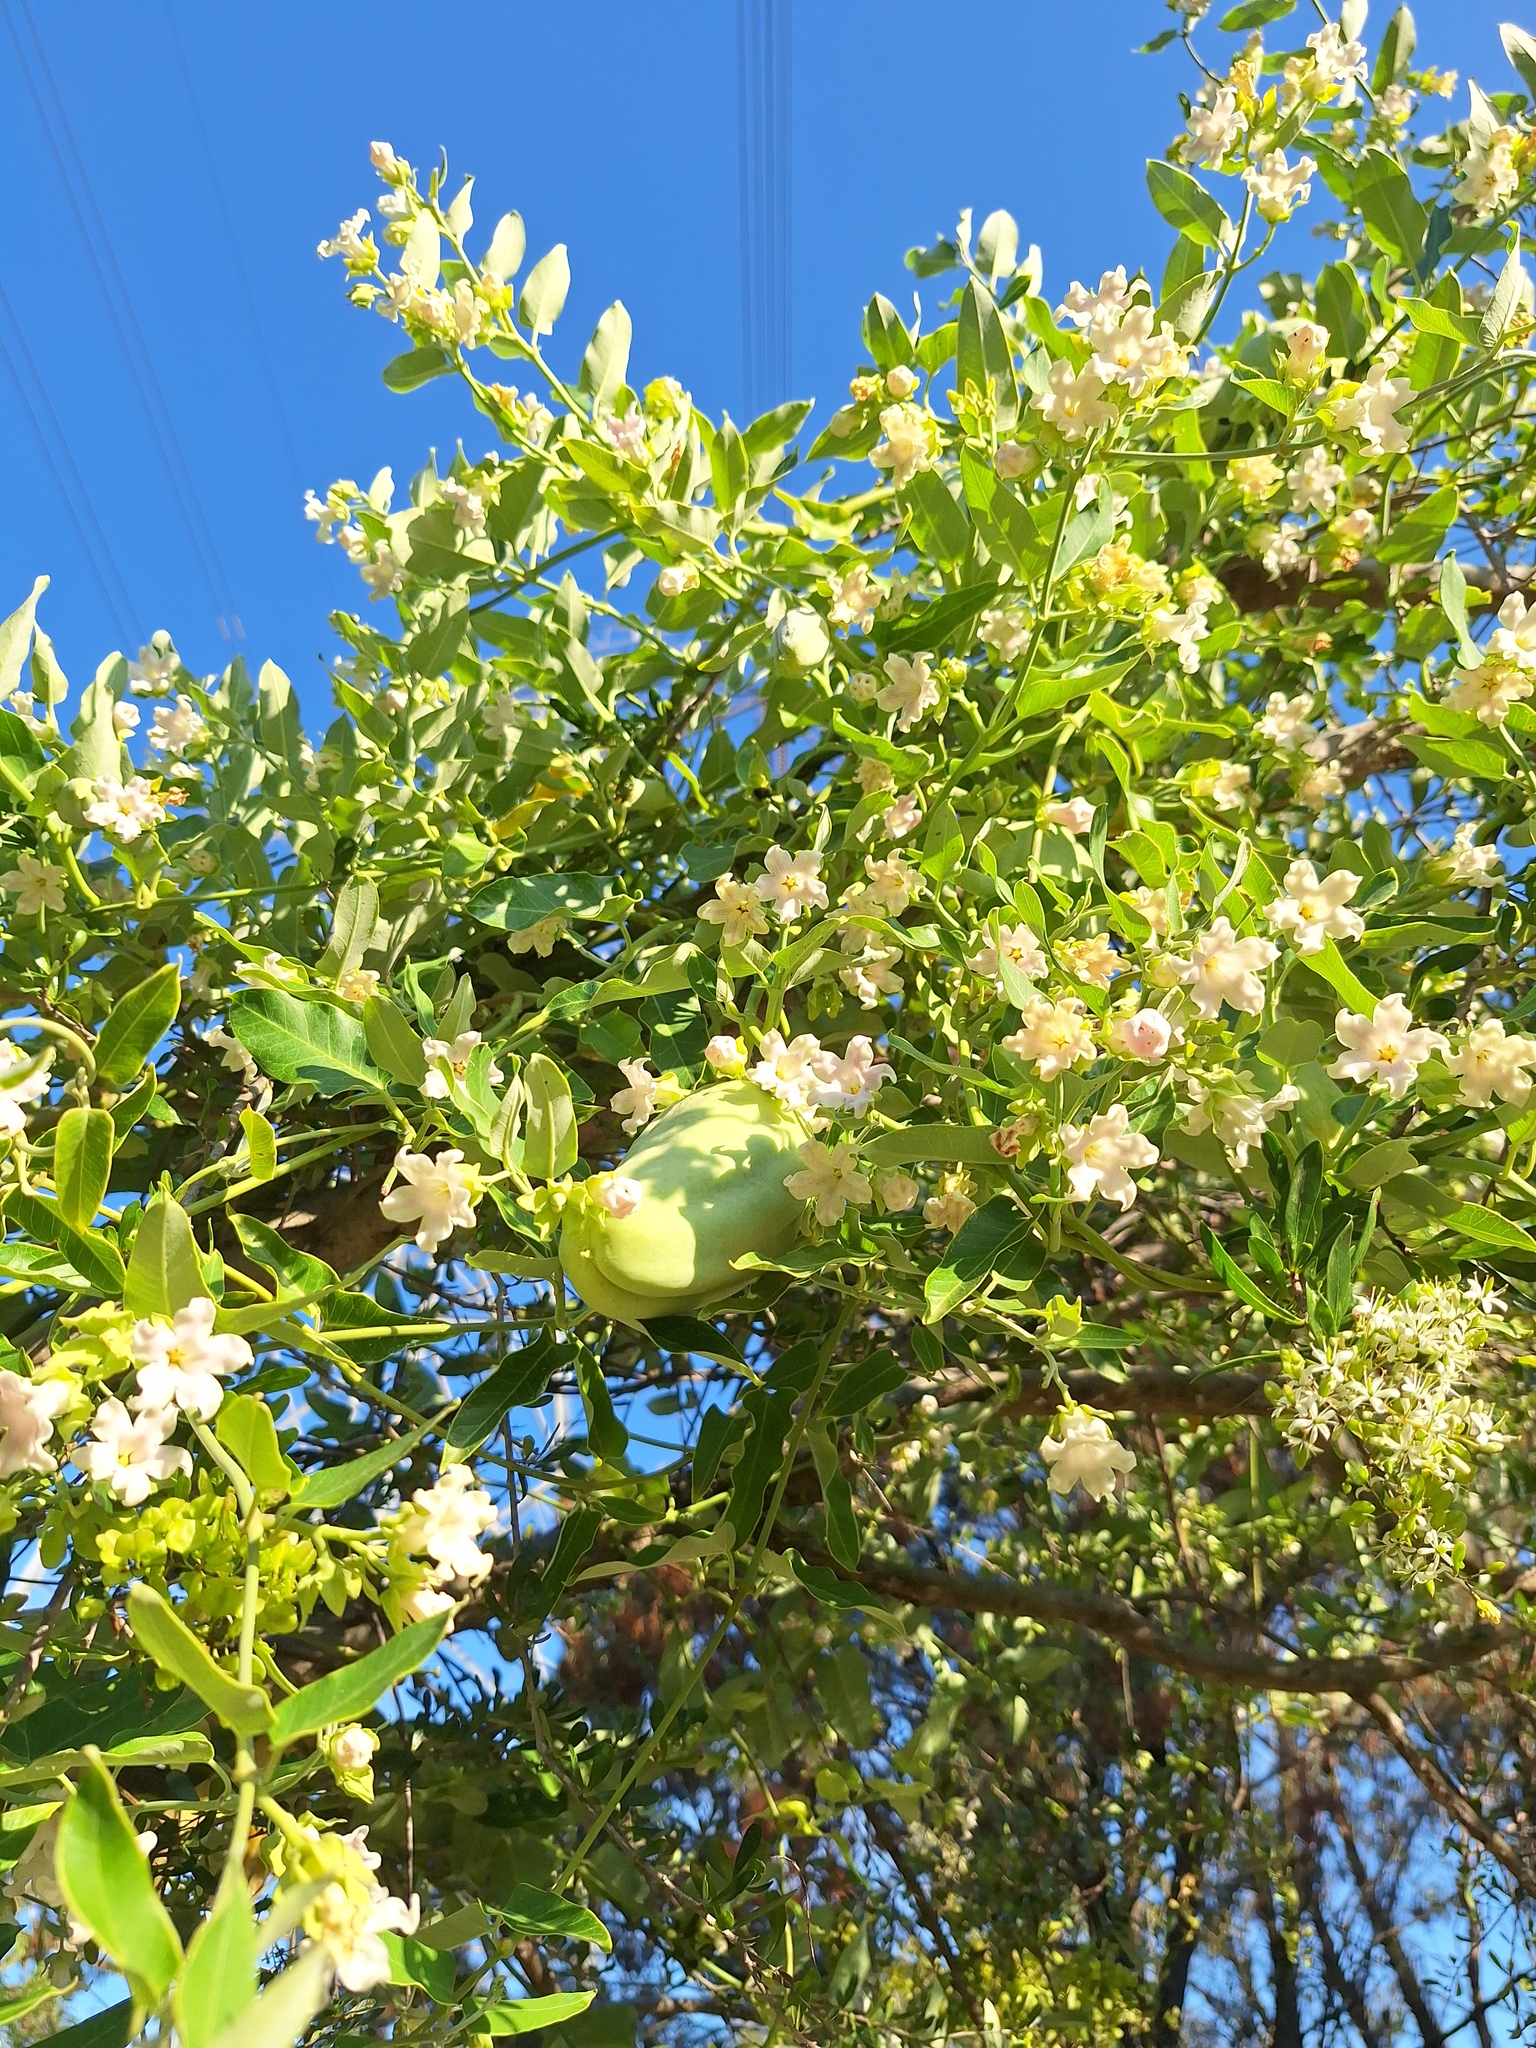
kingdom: Plantae
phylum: Tracheophyta
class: Magnoliopsida
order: Gentianales
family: Apocynaceae
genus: Araujia
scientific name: Araujia sericifera
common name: White bladderflower
